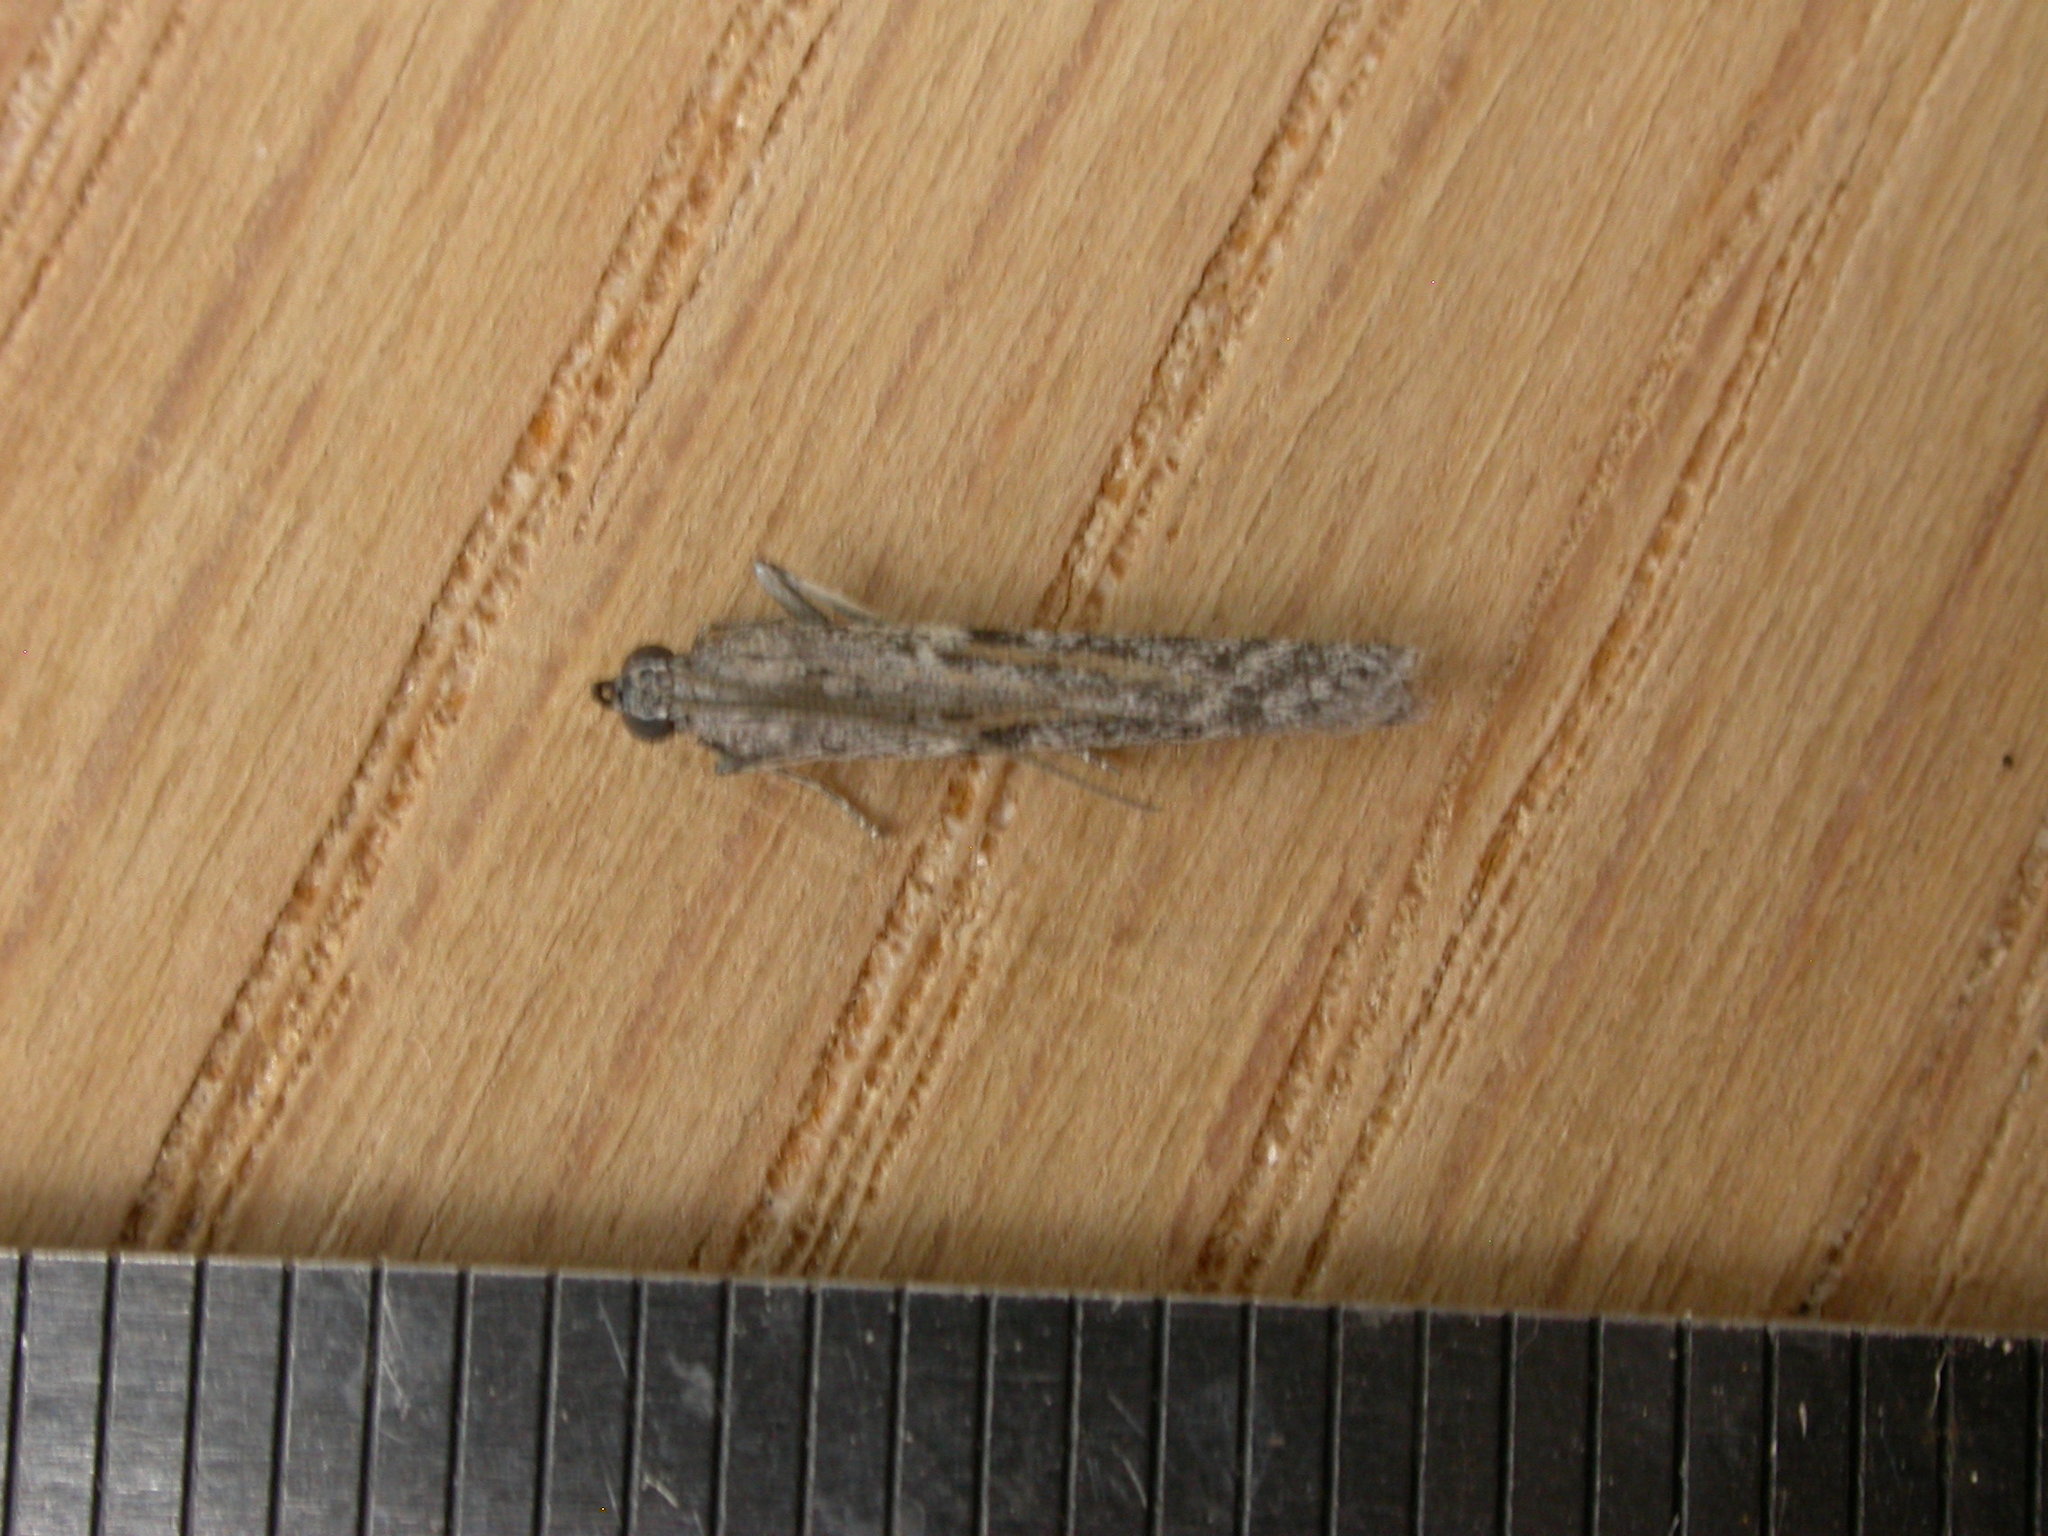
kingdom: Animalia
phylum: Arthropoda
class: Insecta
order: Lepidoptera
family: Pyralidae
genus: Homoeosoma
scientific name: Homoeosoma vagella
